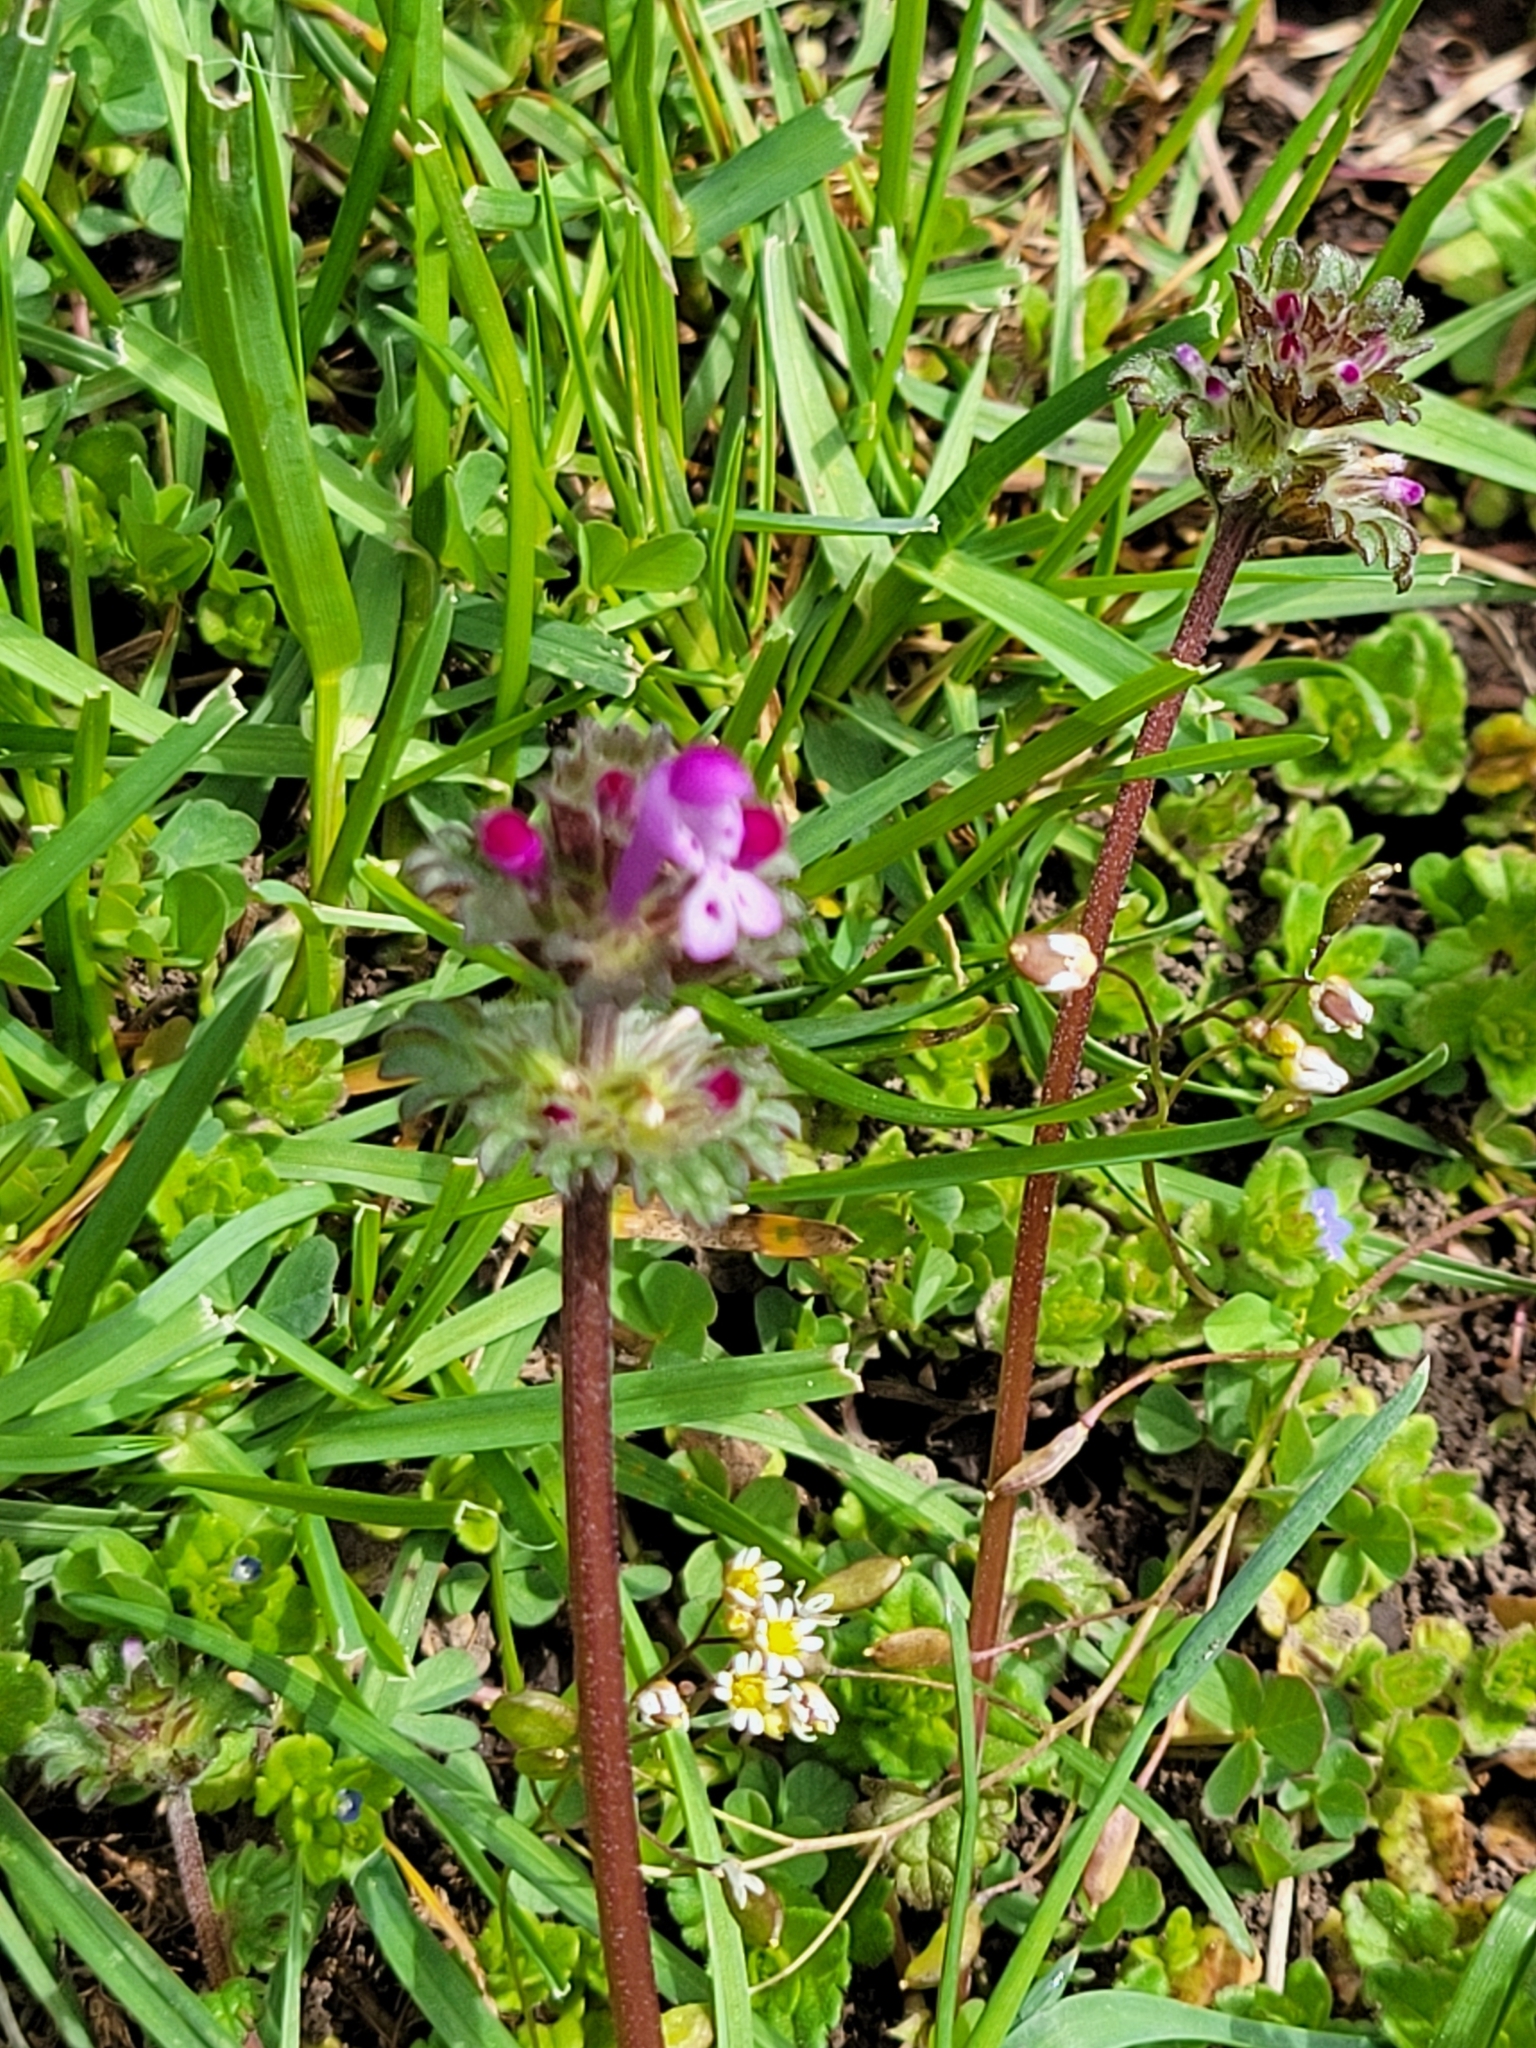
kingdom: Plantae
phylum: Tracheophyta
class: Magnoliopsida
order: Lamiales
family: Lamiaceae
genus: Lamium
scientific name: Lamium amplexicaule
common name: Henbit dead-nettle
